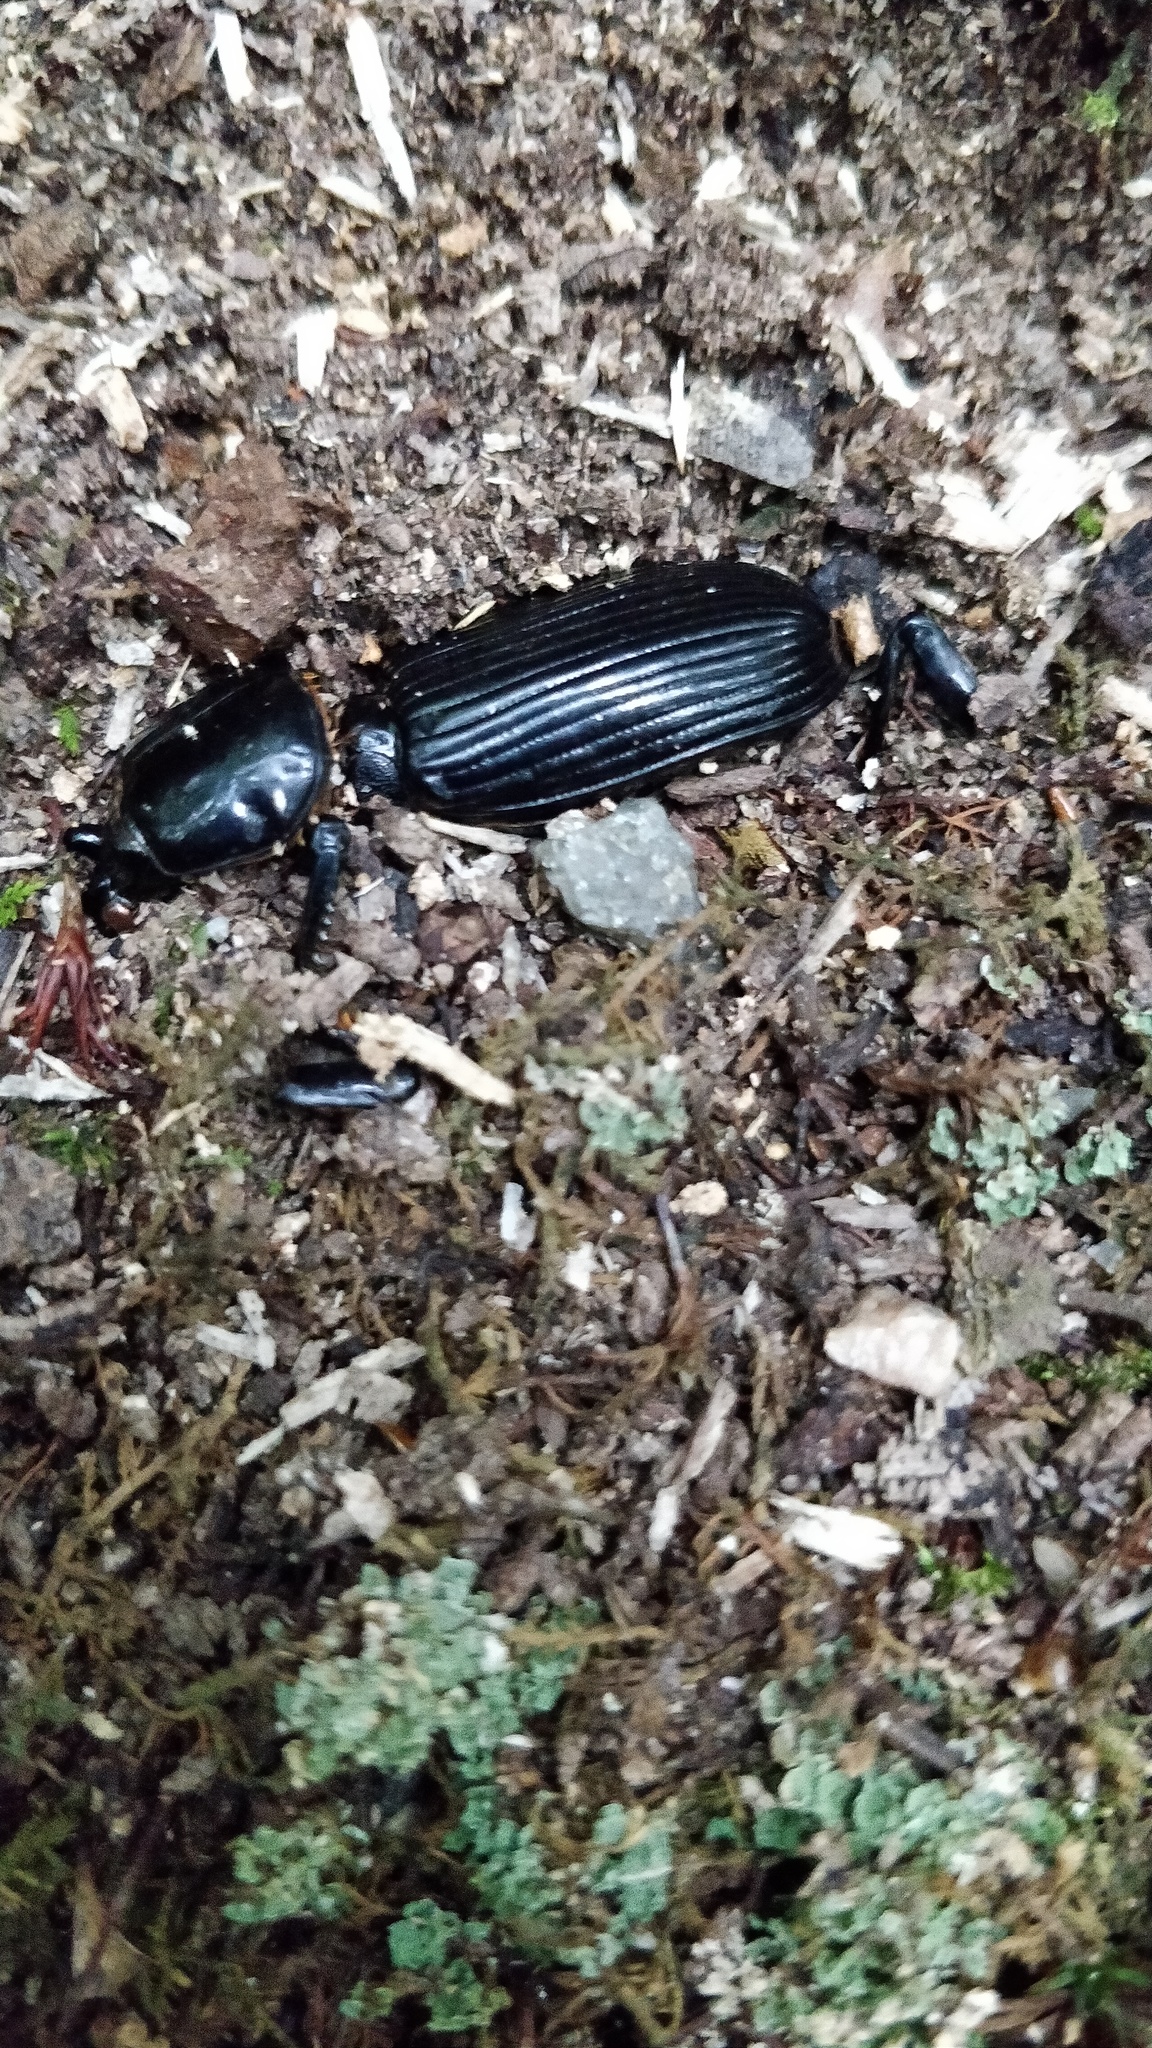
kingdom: Animalia
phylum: Arthropoda
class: Insecta
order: Coleoptera
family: Passalidae
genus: Odontotaenius
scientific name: Odontotaenius disjunctus
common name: Patent leather beetle
